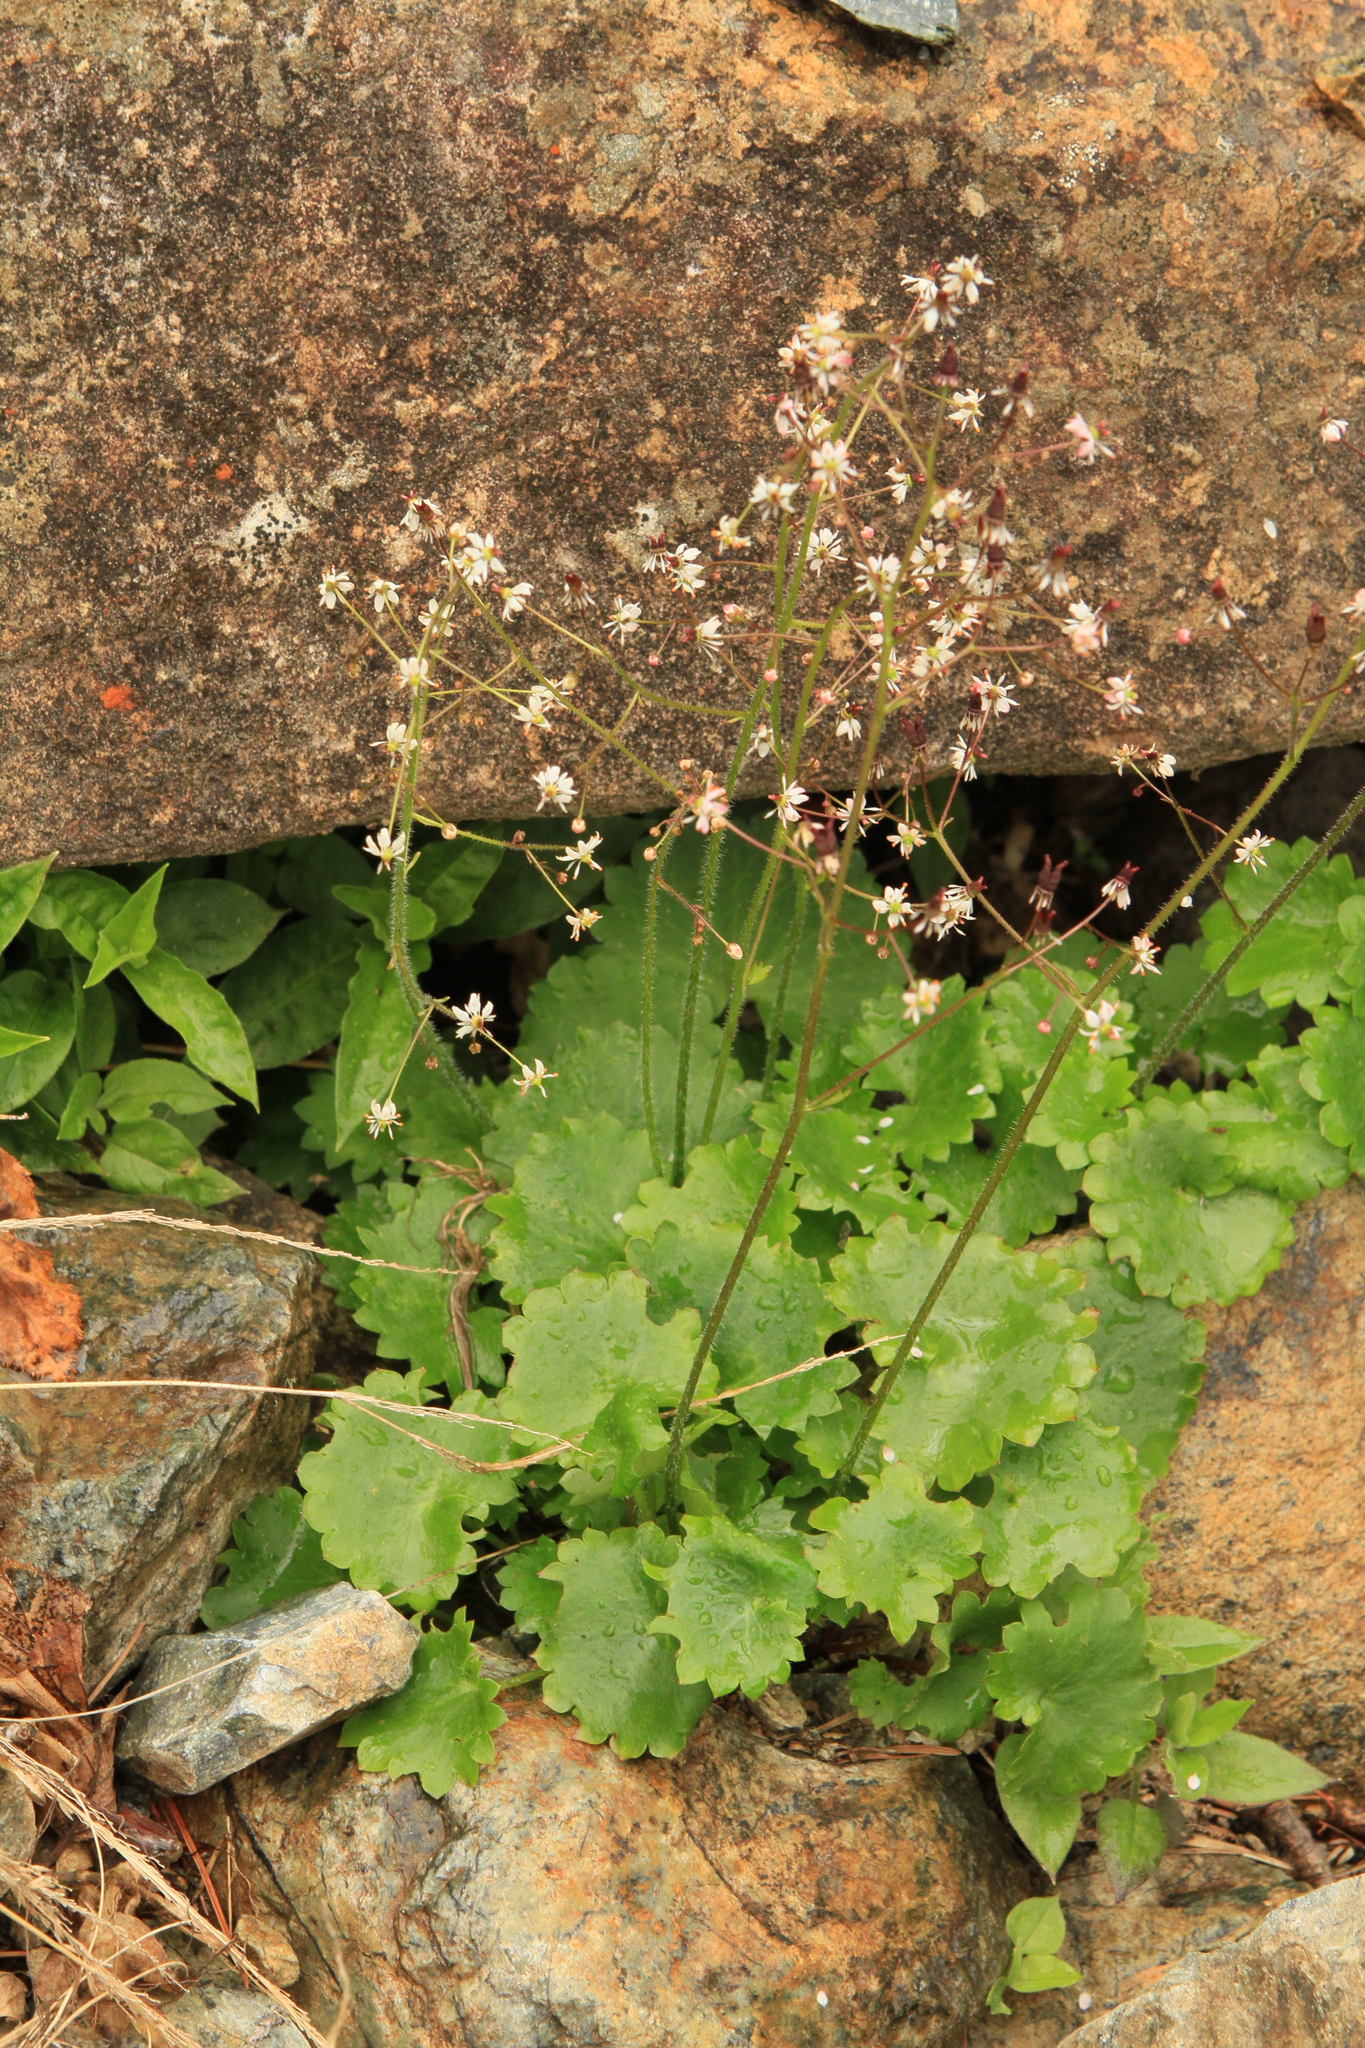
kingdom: Plantae
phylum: Tracheophyta
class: Magnoliopsida
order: Saxifragales
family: Saxifragaceae
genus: Micranthes
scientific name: Micranthes nelsoniana
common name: Nelson's saxifrage
